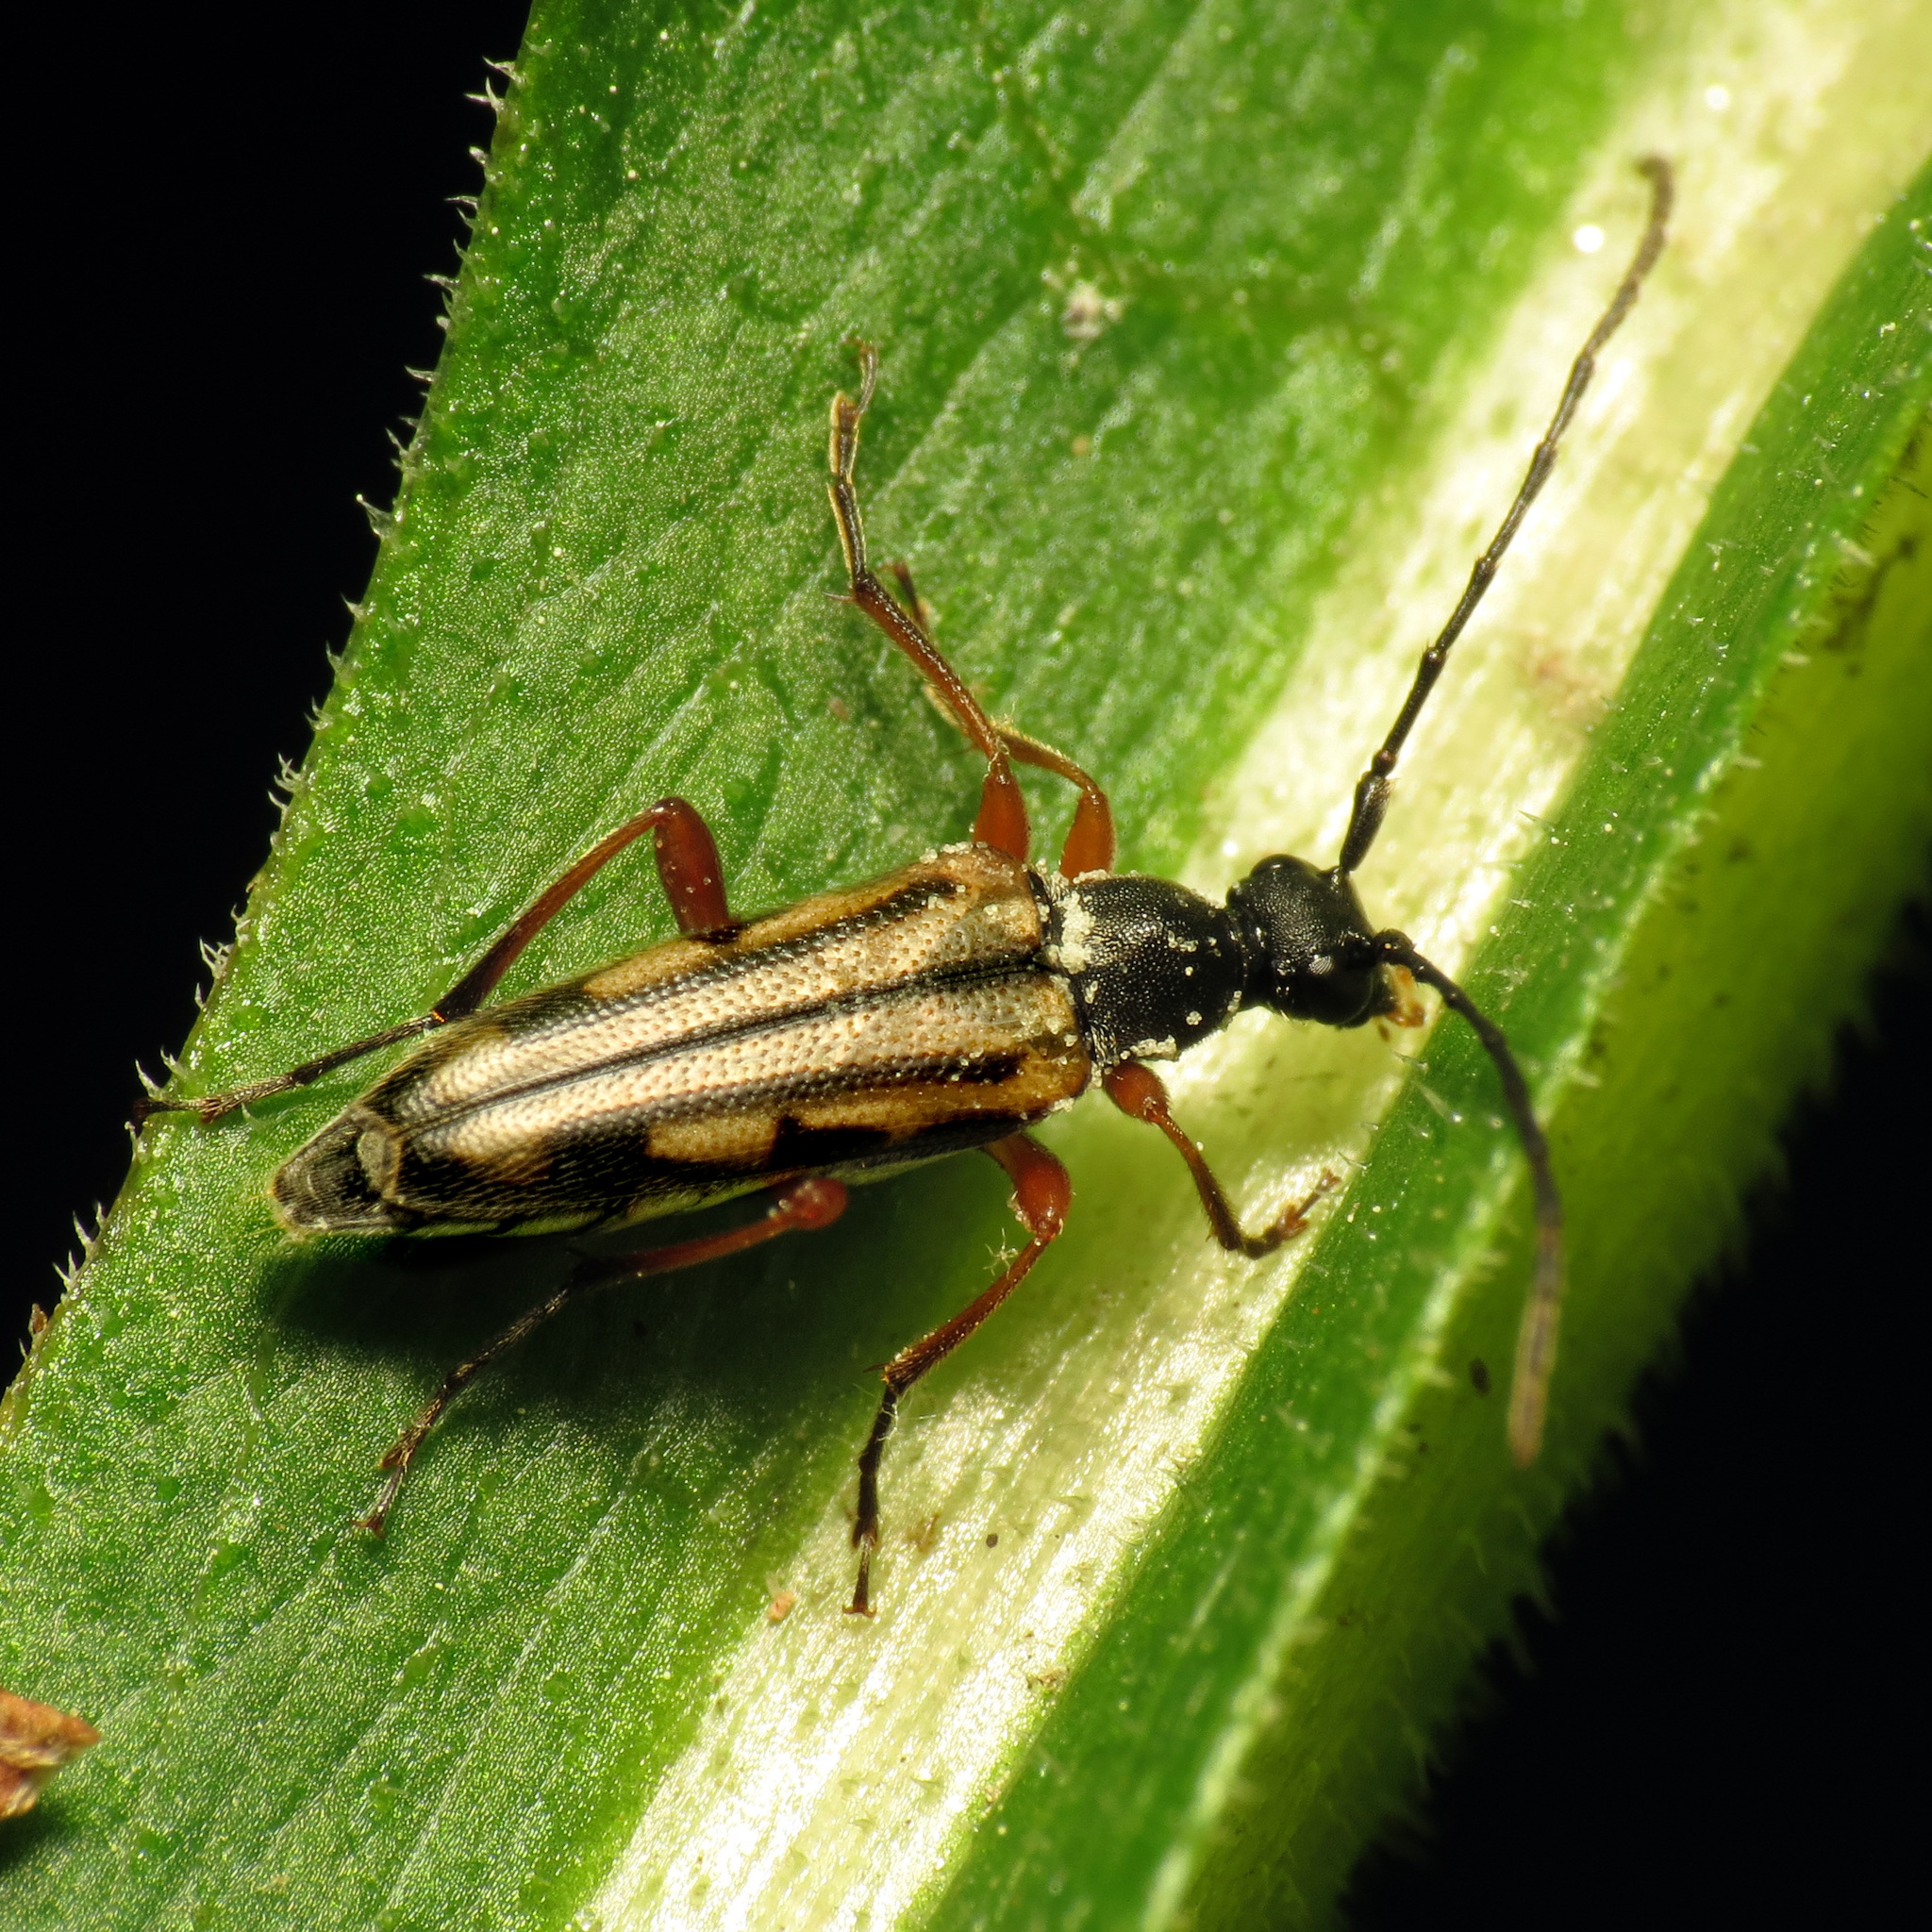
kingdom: Animalia
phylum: Arthropoda
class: Insecta
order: Coleoptera
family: Cerambycidae
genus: Analeptura
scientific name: Analeptura lineola
